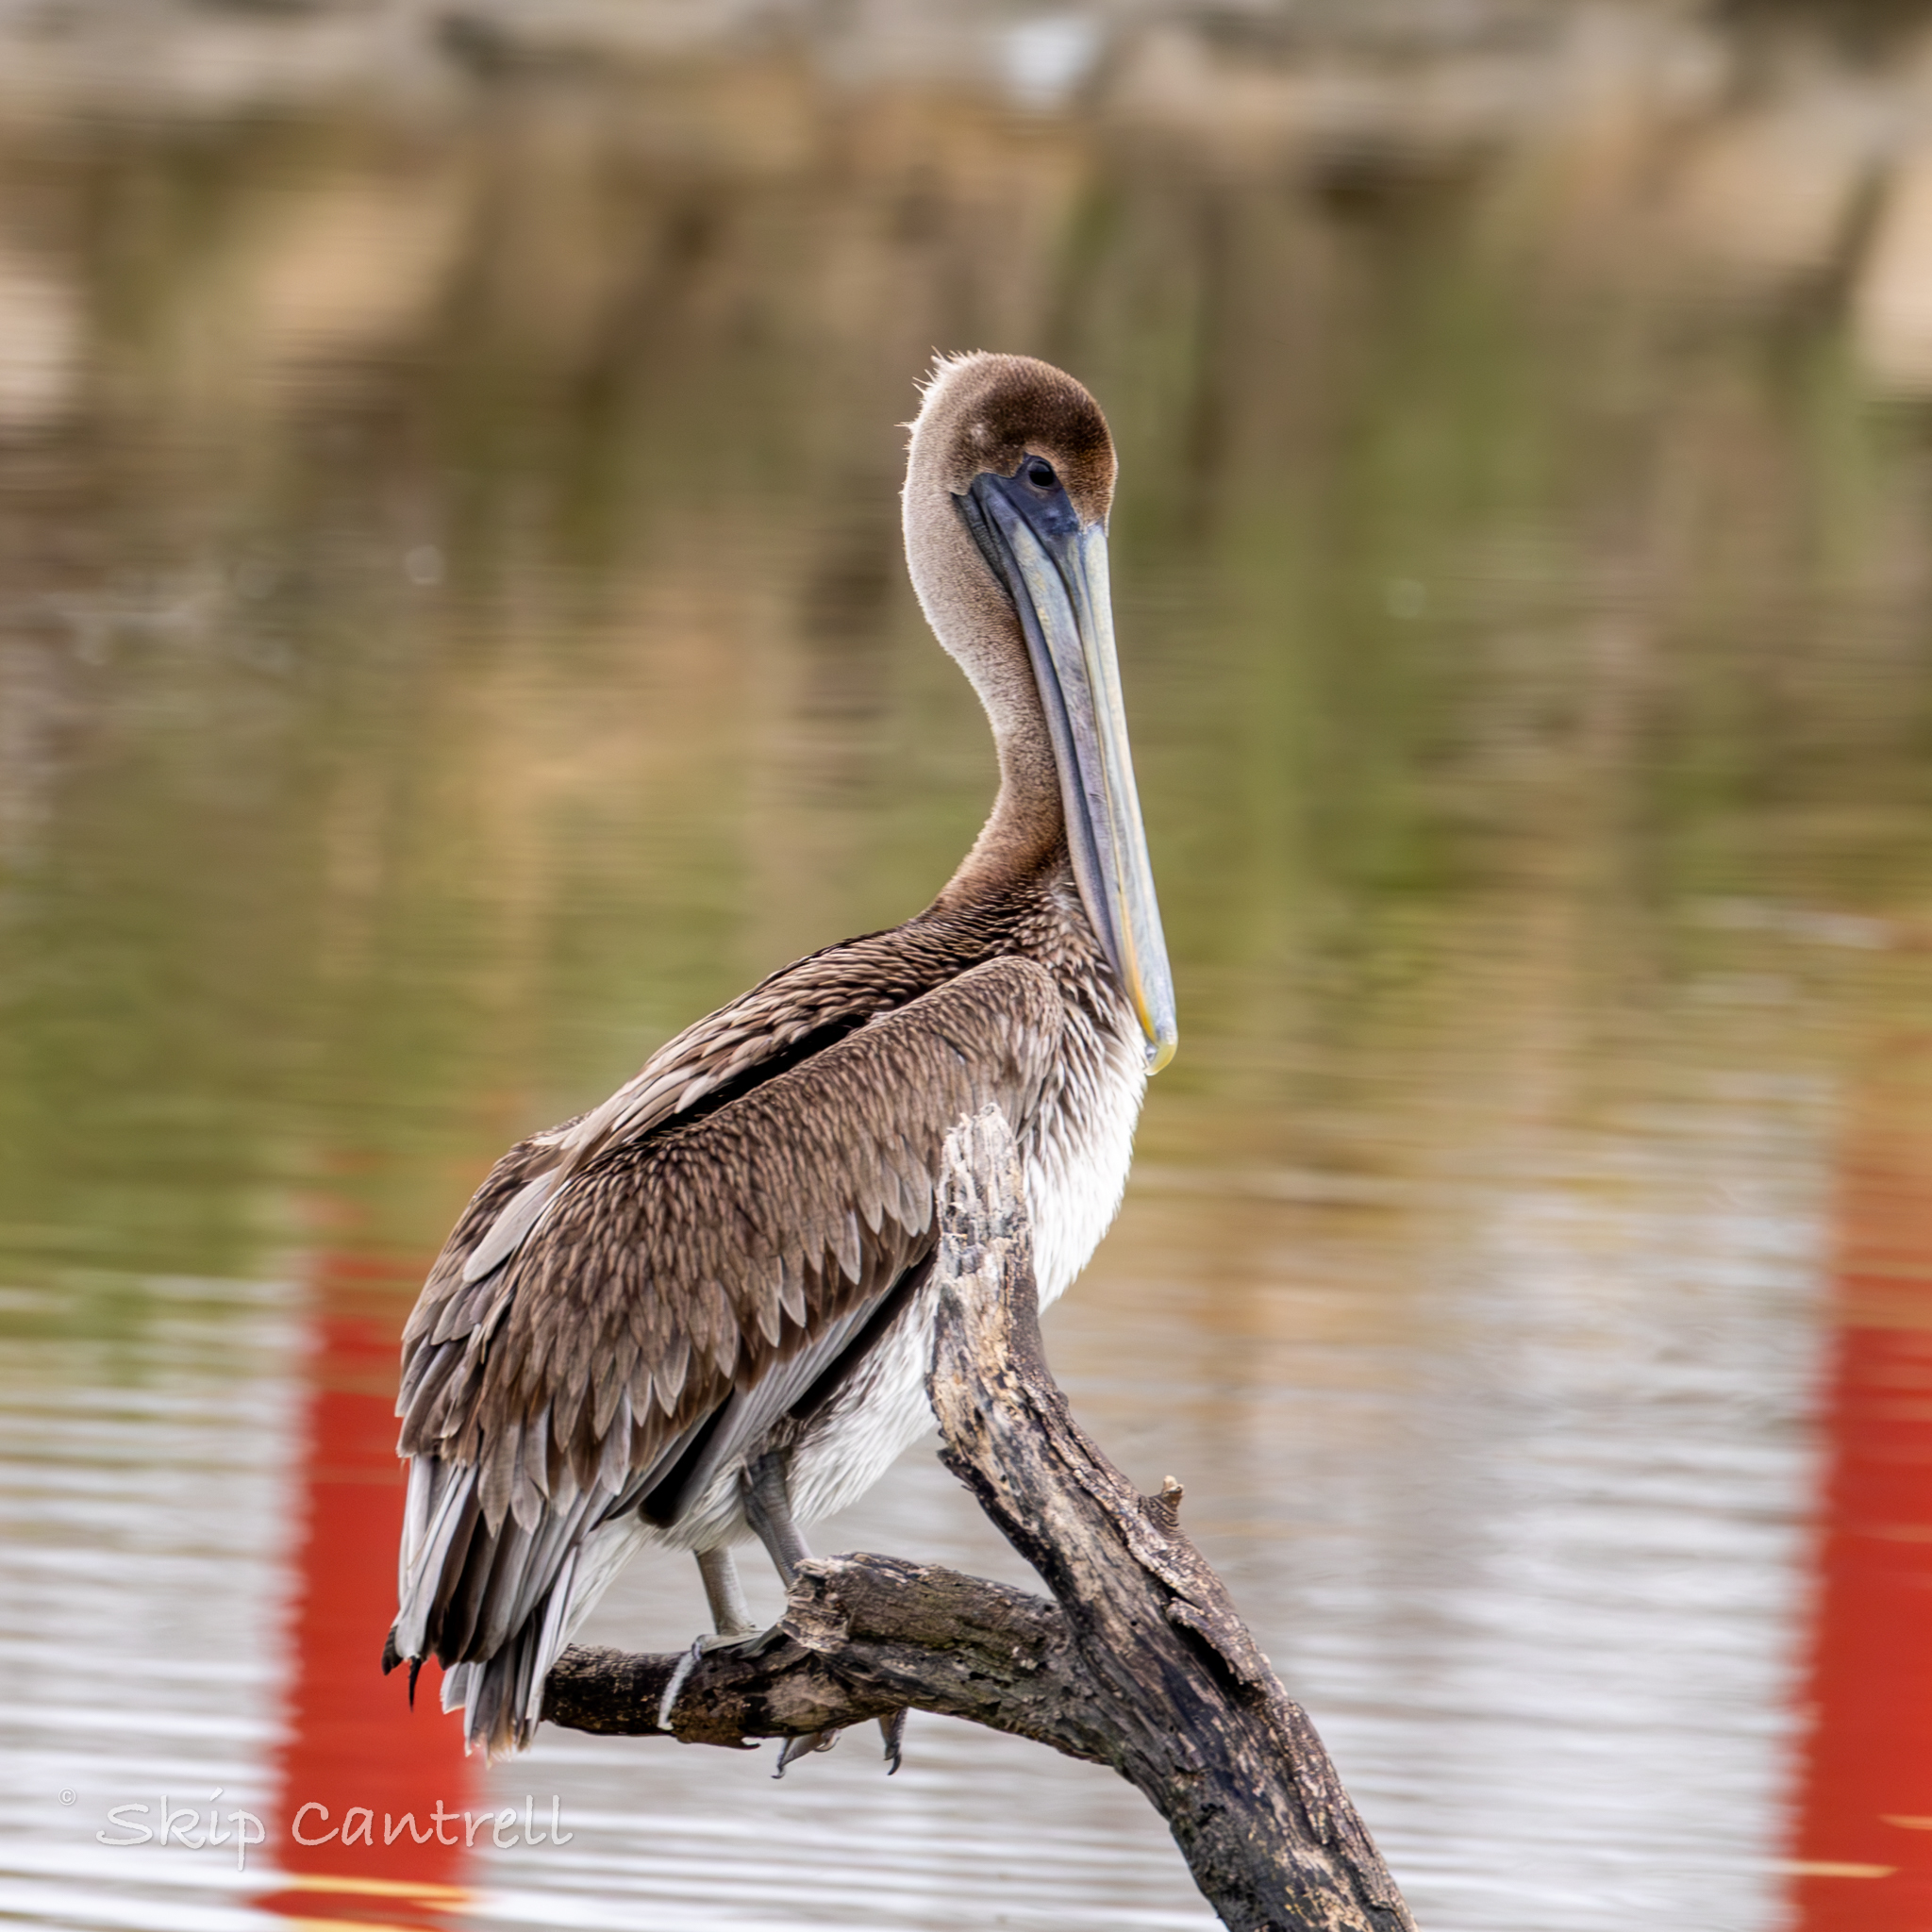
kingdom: Animalia
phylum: Chordata
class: Aves
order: Pelecaniformes
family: Pelecanidae
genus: Pelecanus
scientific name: Pelecanus occidentalis
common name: Brown pelican
